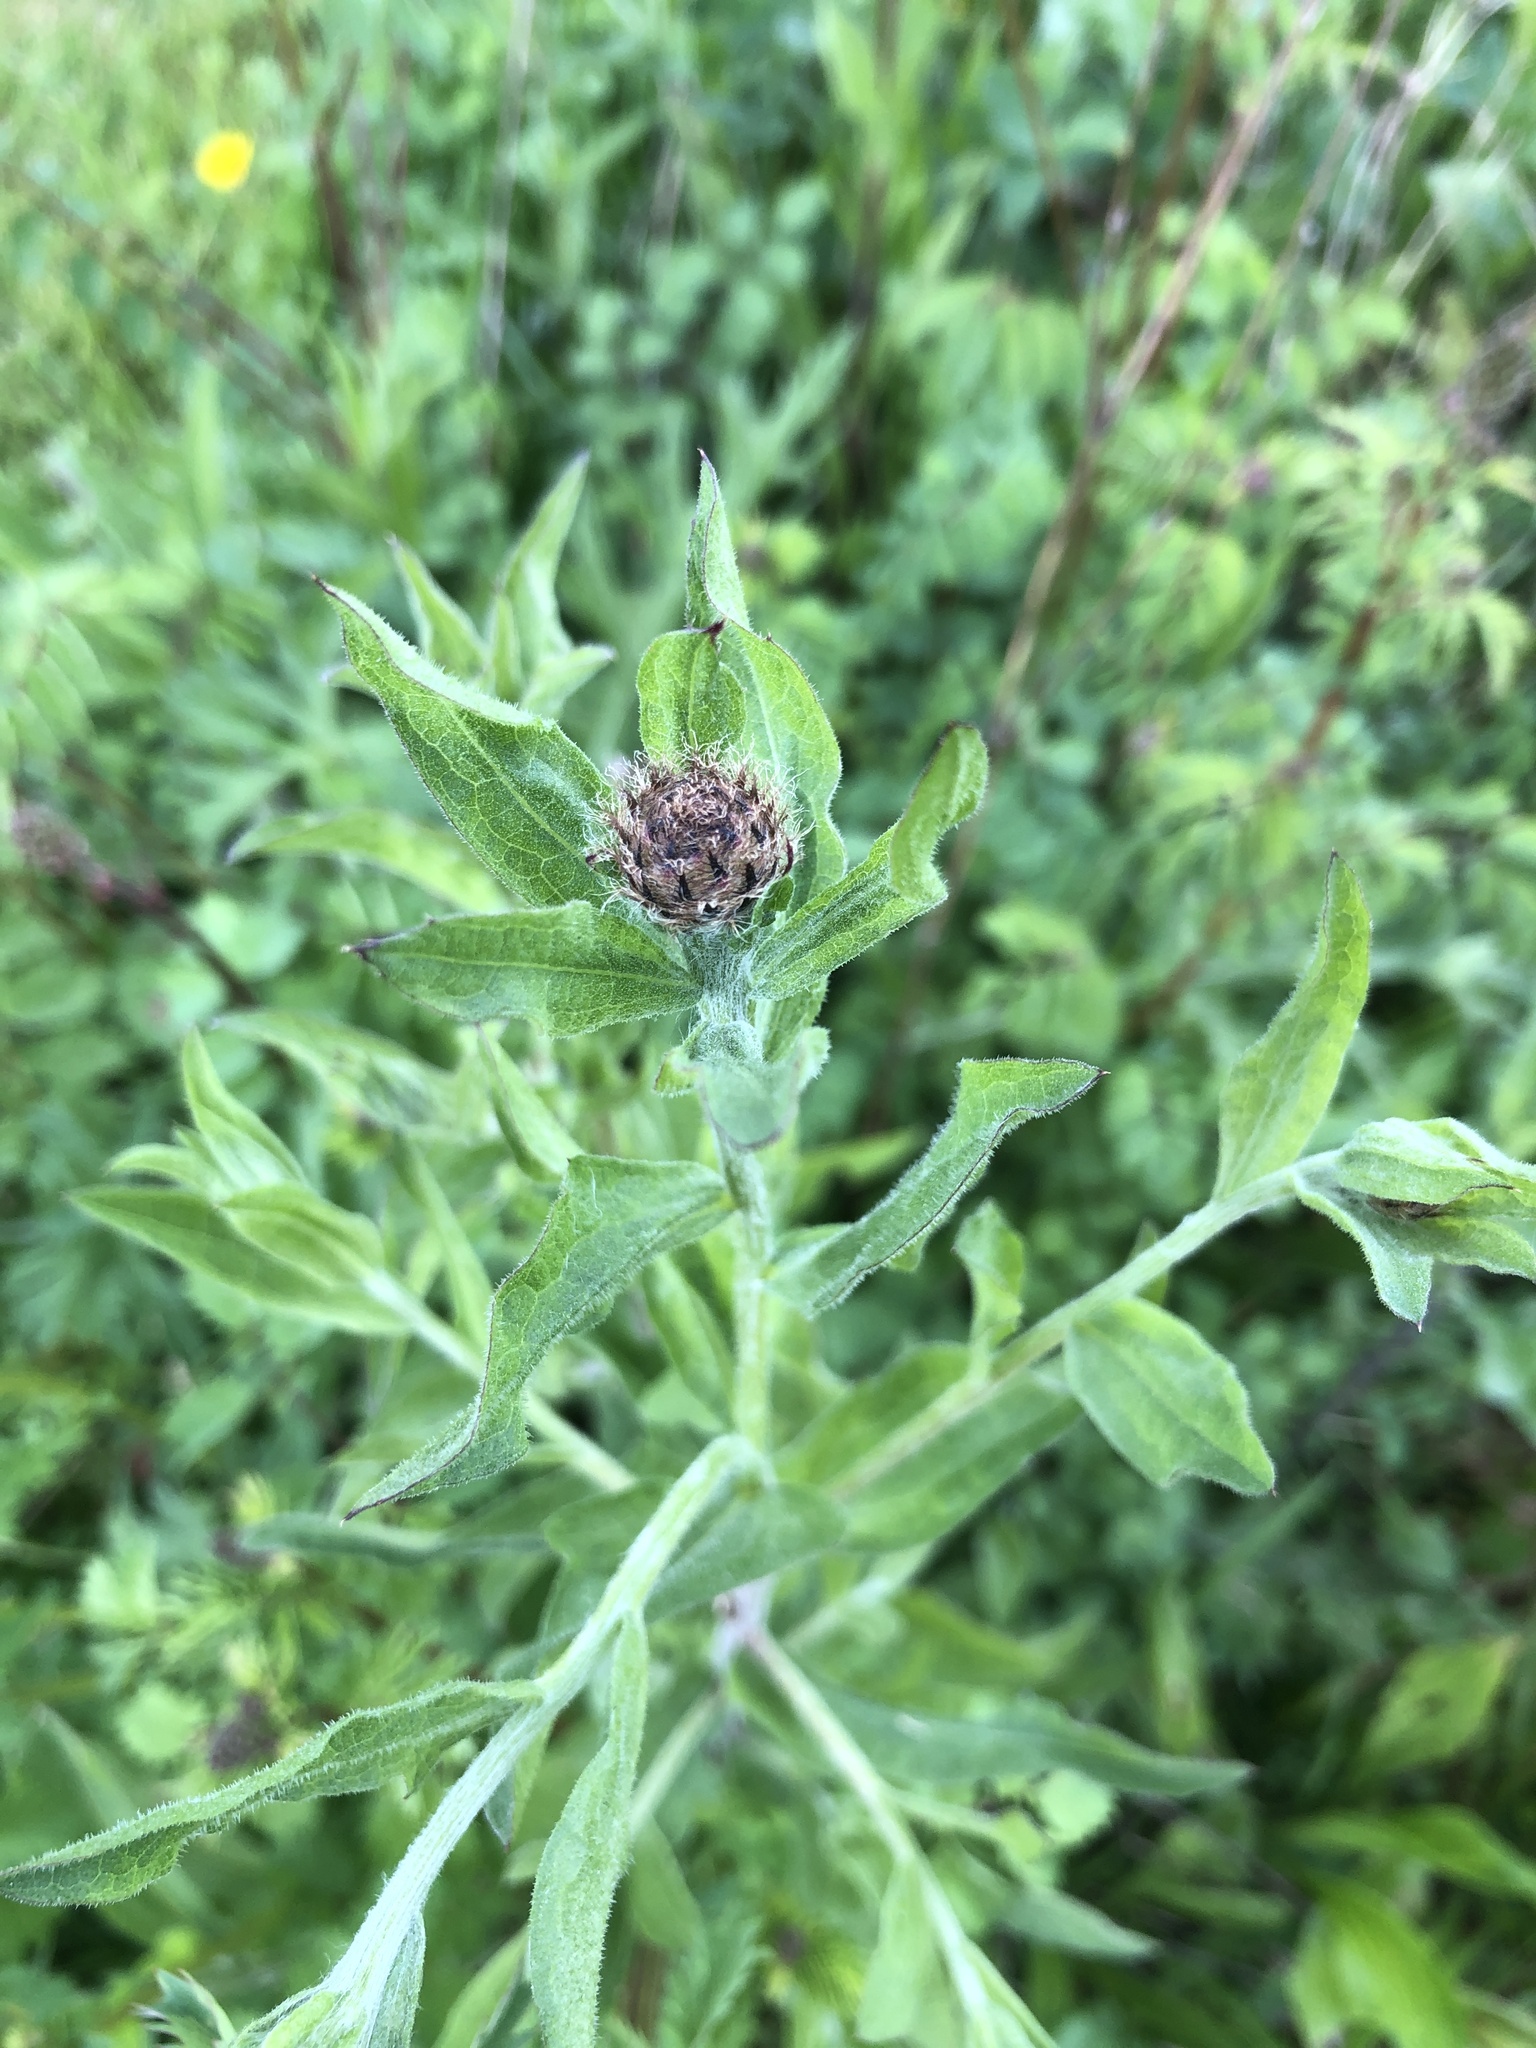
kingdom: Plantae
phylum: Tracheophyta
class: Magnoliopsida
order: Asterales
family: Asteraceae
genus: Centaurea
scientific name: Centaurea nigra
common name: Lesser knapweed
